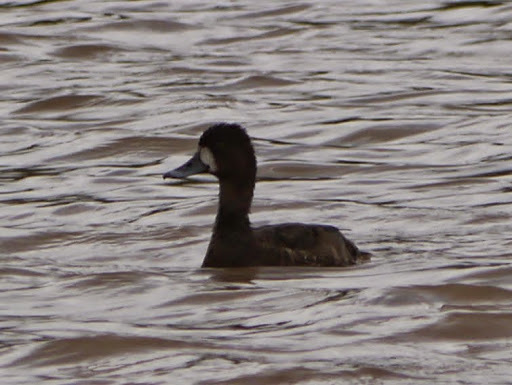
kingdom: Animalia
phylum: Chordata
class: Aves
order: Anseriformes
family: Anatidae
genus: Aythya
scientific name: Aythya affinis
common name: Lesser scaup
